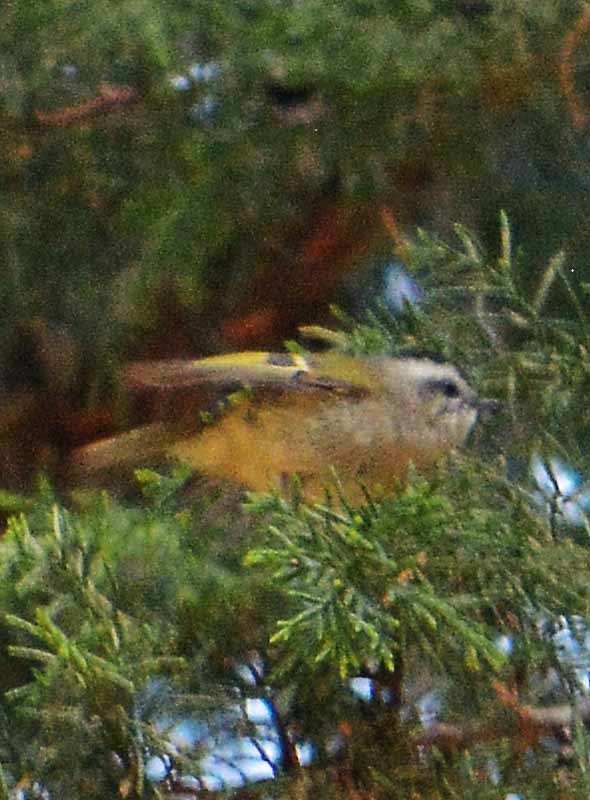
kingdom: Animalia
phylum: Chordata
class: Aves
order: Passeriformes
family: Regulidae
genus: Regulus
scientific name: Regulus satrapa
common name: Golden-crowned kinglet
